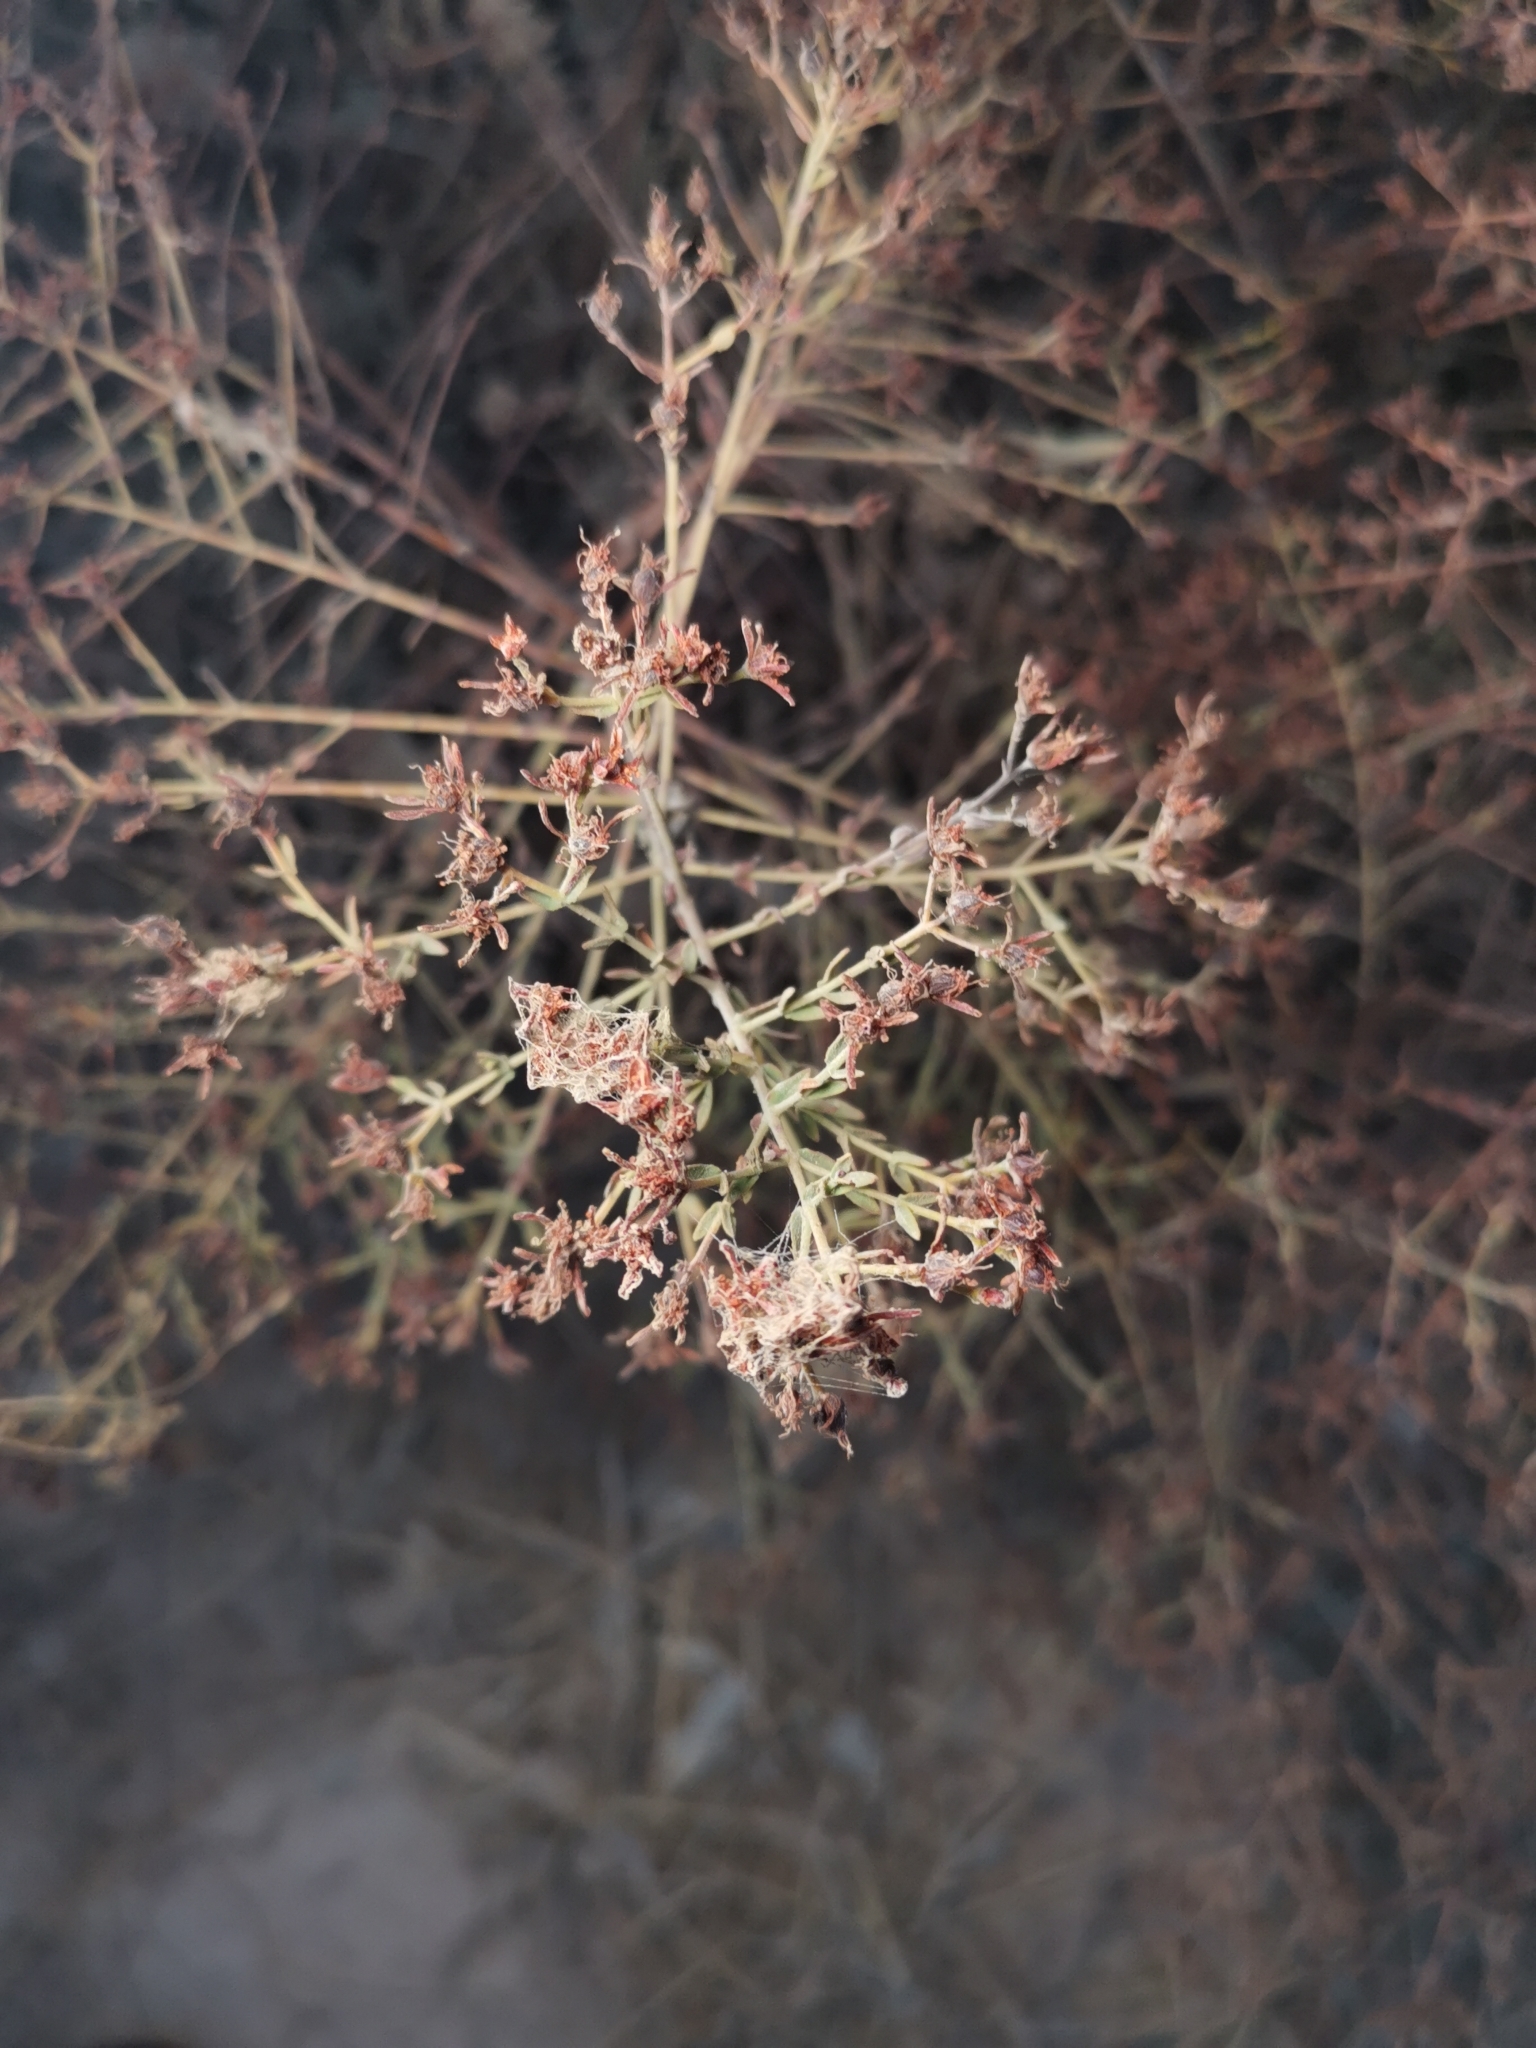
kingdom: Plantae
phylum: Tracheophyta
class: Magnoliopsida
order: Malpighiales
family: Hypericaceae
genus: Hypericum
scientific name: Hypericum triquetrifolium
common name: Tangled hypericum
